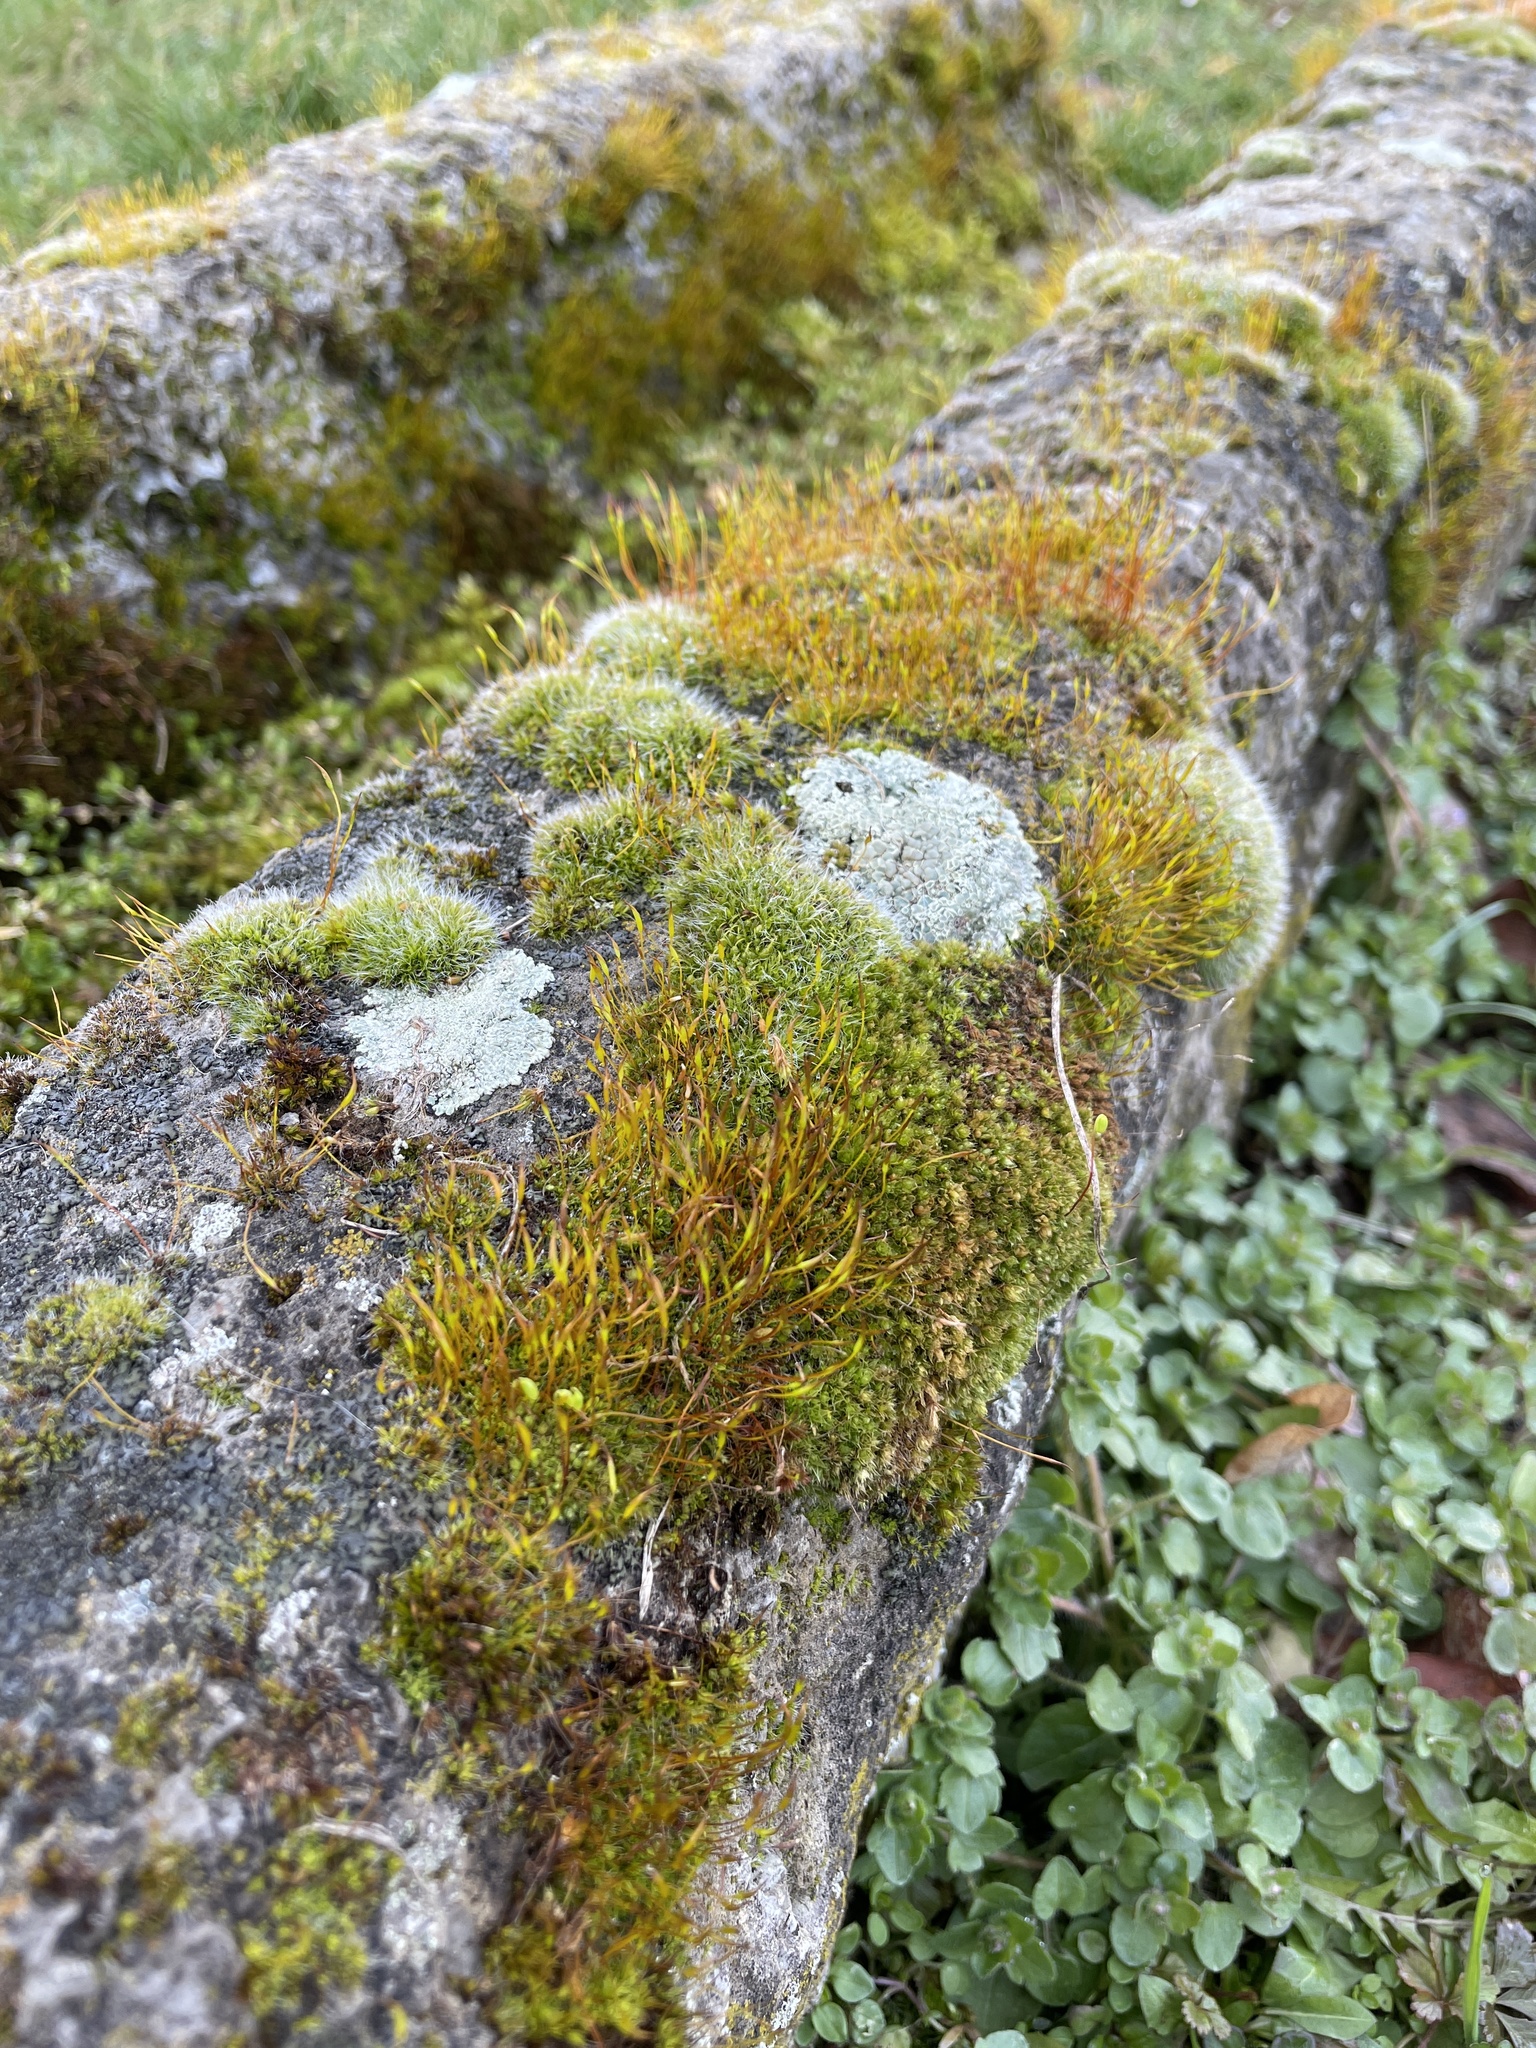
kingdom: Plantae
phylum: Bryophyta
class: Bryopsida
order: Pottiales
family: Pottiaceae
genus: Tortula
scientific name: Tortula muralis
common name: Wall screw-moss
